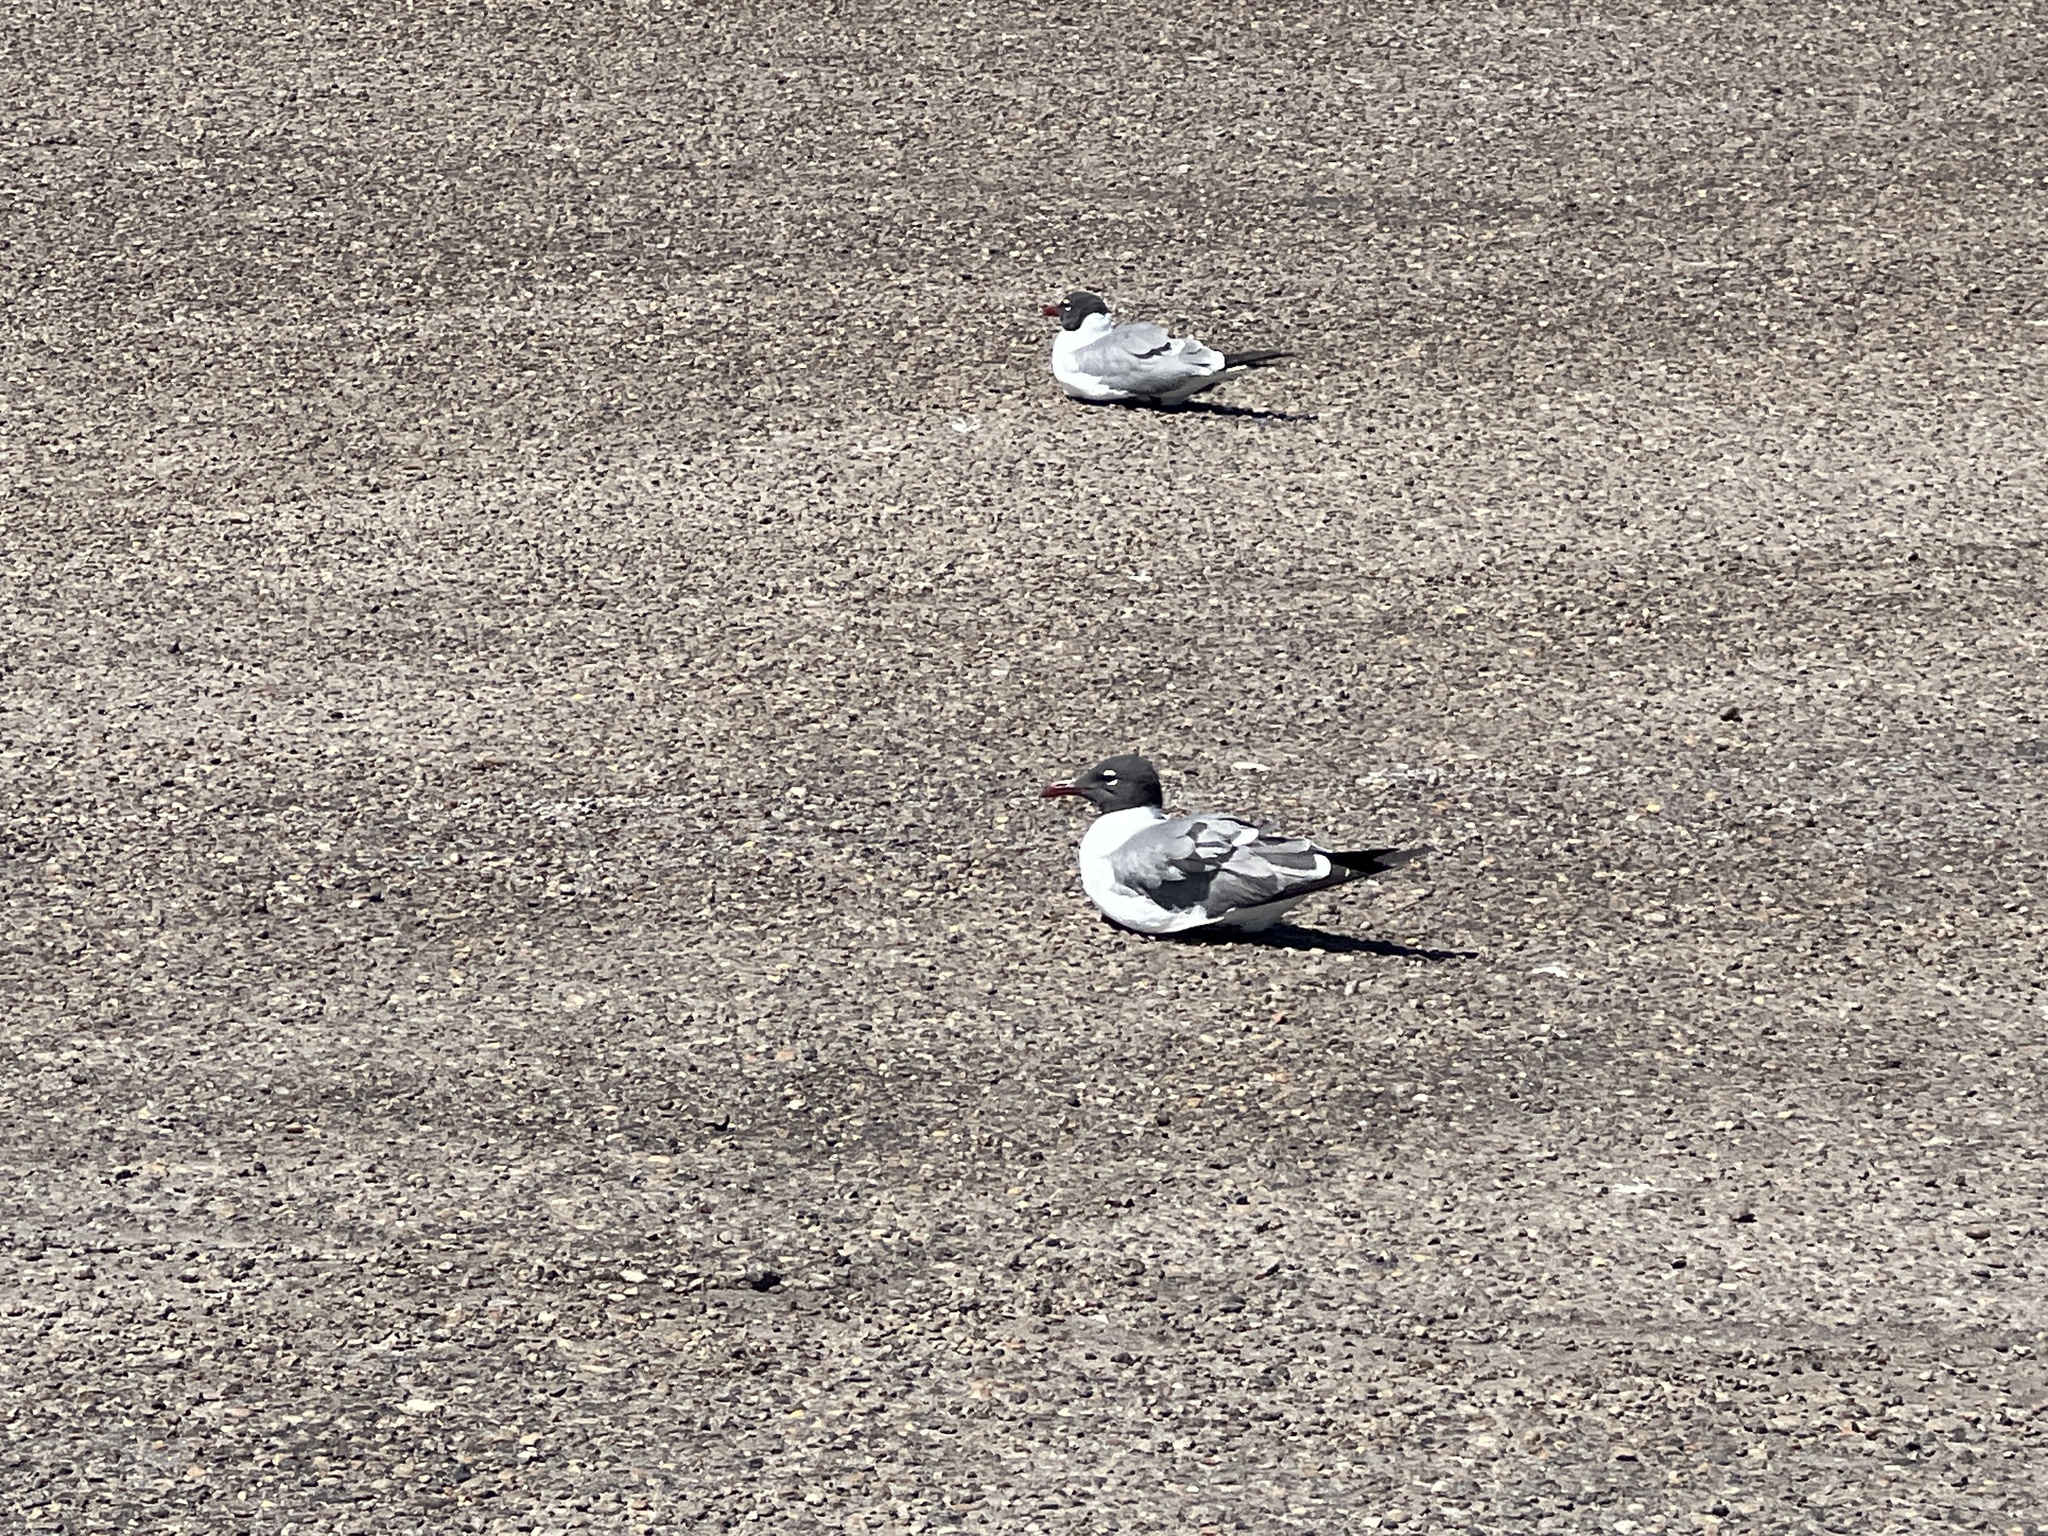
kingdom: Animalia
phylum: Chordata
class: Aves
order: Charadriiformes
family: Laridae
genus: Leucophaeus
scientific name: Leucophaeus atricilla
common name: Laughing gull
